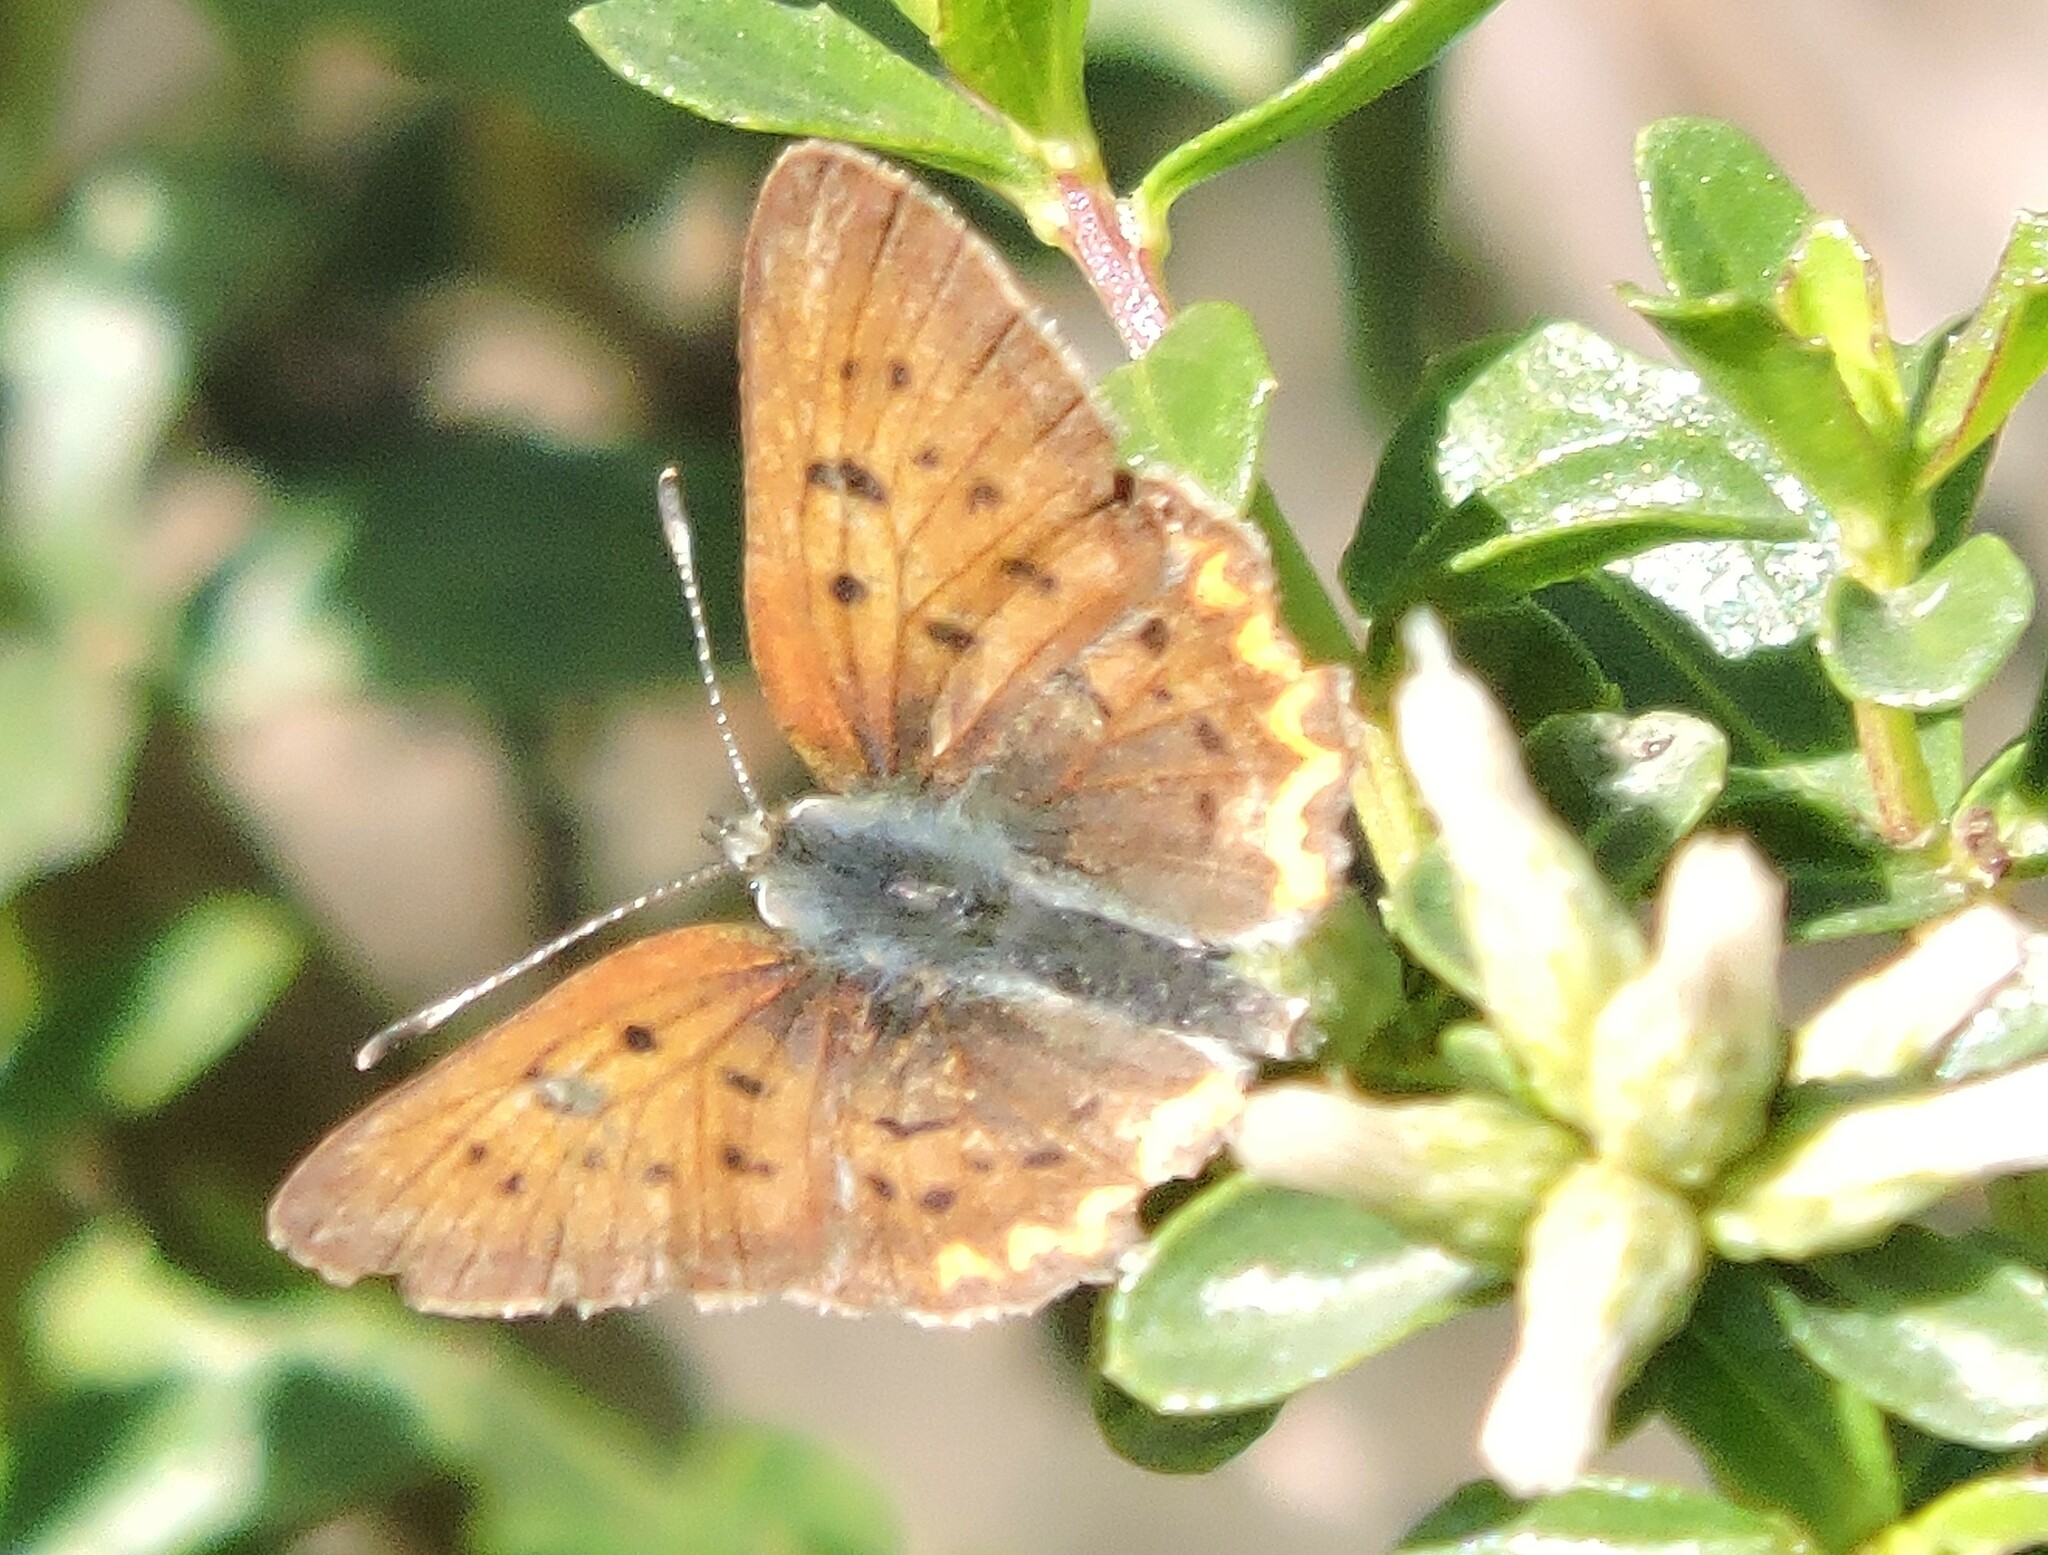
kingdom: Animalia
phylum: Arthropoda
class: Insecta
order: Lepidoptera
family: Lycaenidae
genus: Tharsalea
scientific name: Tharsalea helloides
